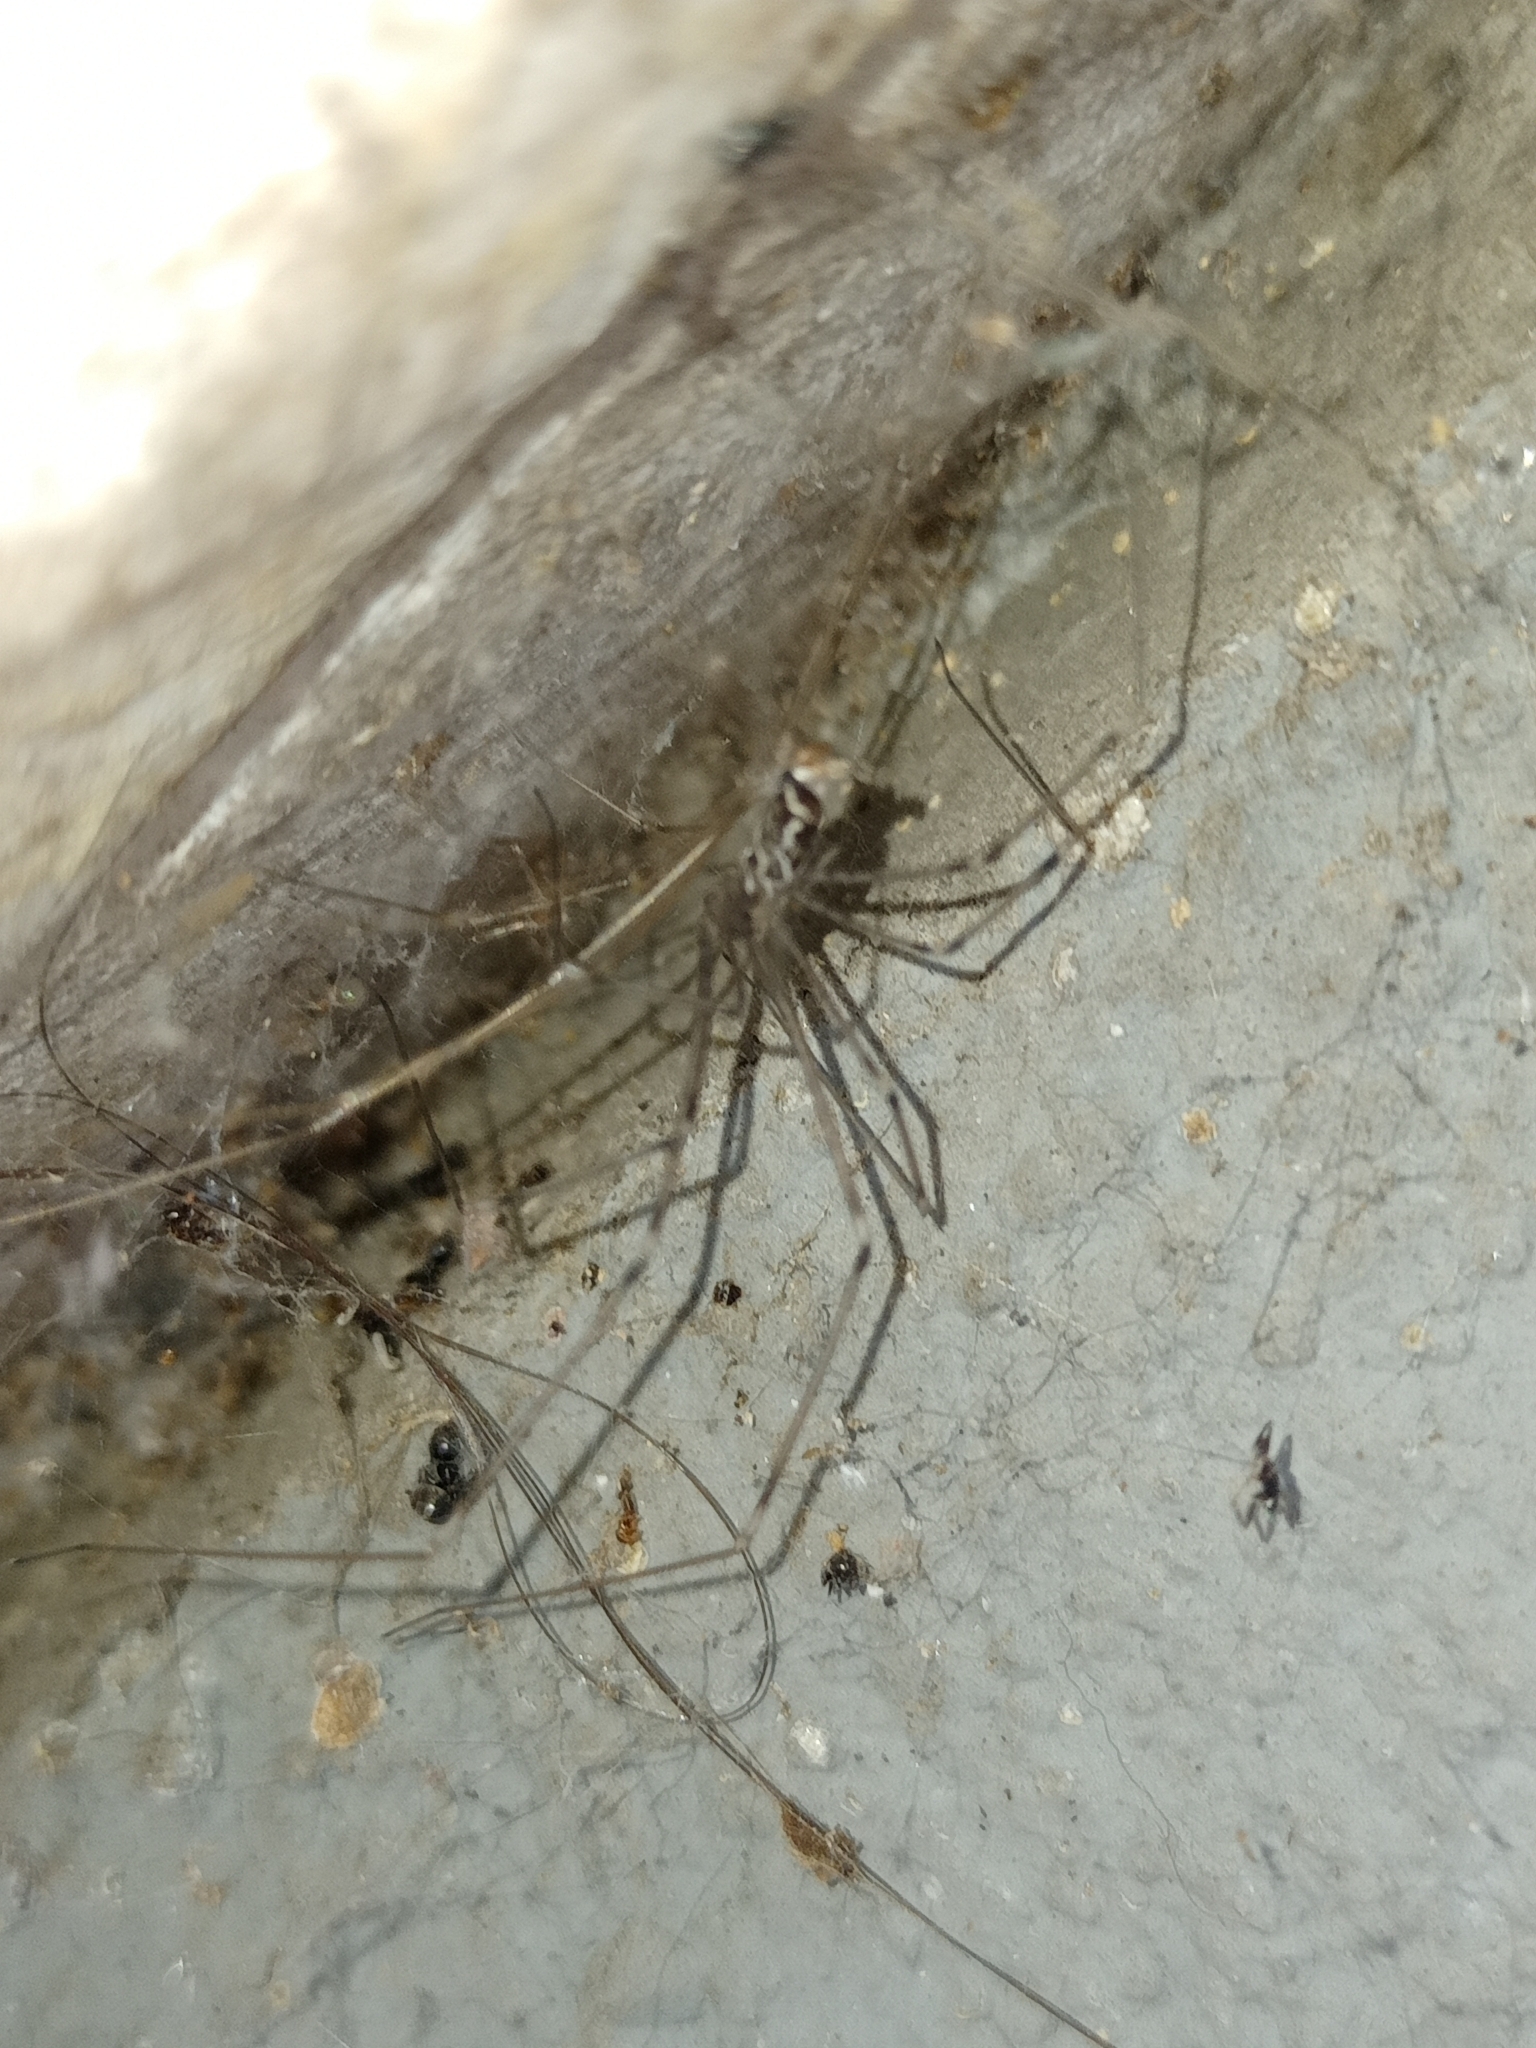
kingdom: Animalia
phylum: Arthropoda
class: Arachnida
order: Araneae
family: Pholcidae
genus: Holocnemus
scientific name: Holocnemus pluchei
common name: Marbled cellar spider
